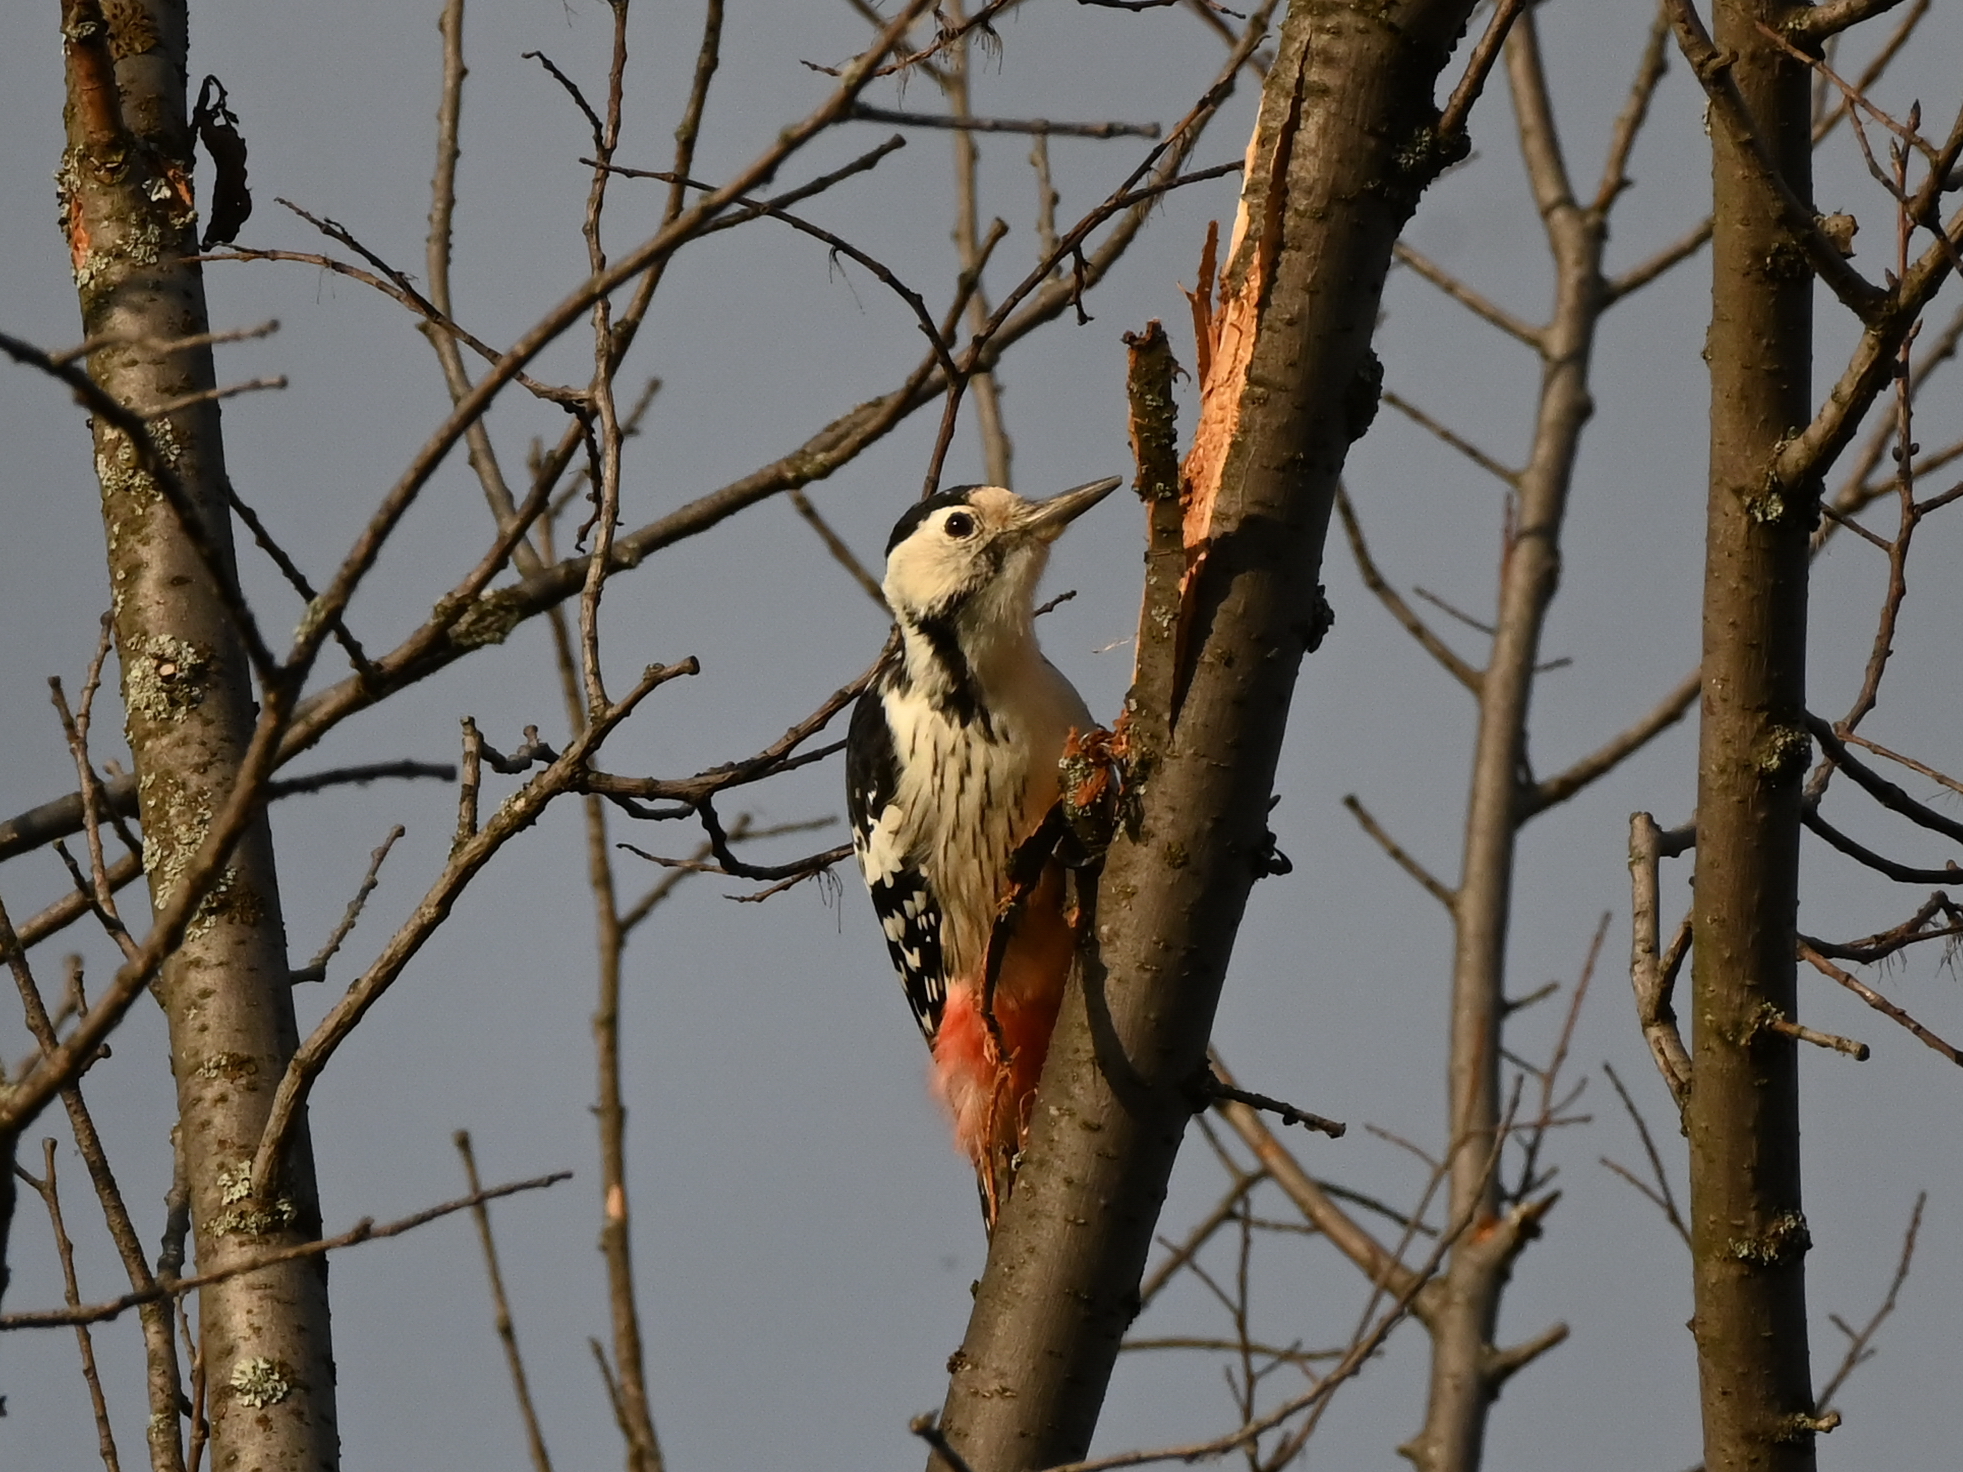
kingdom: Animalia
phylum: Chordata
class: Aves
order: Piciformes
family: Picidae
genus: Dendrocopos
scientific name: Dendrocopos leucotos
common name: White-backed woodpecker
